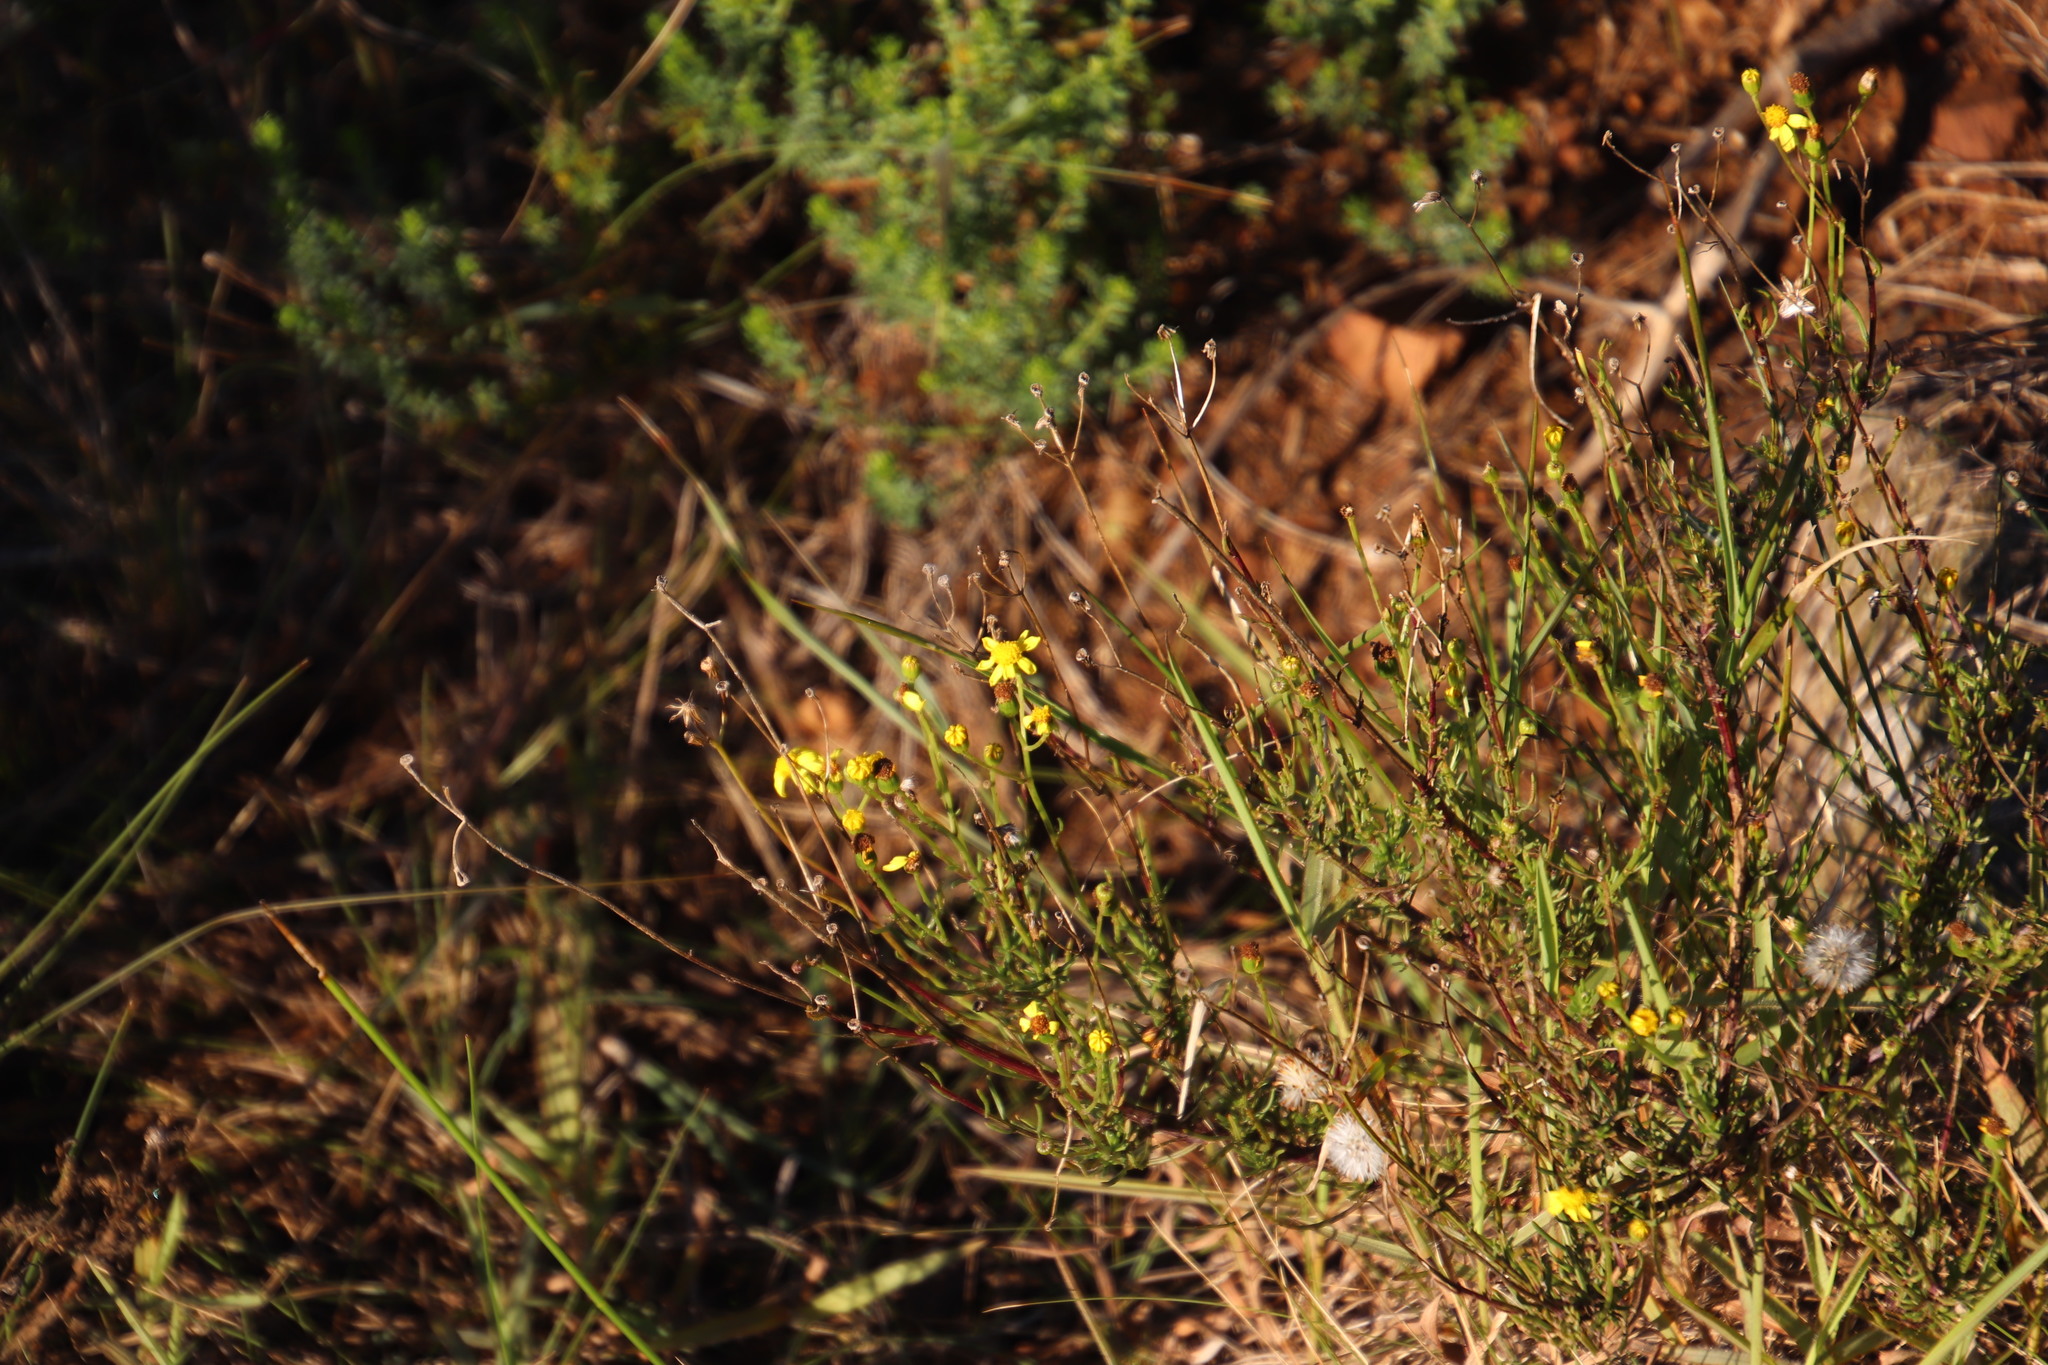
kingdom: Plantae
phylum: Tracheophyta
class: Magnoliopsida
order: Asterales
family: Asteraceae
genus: Senecio
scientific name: Senecio burchellii
